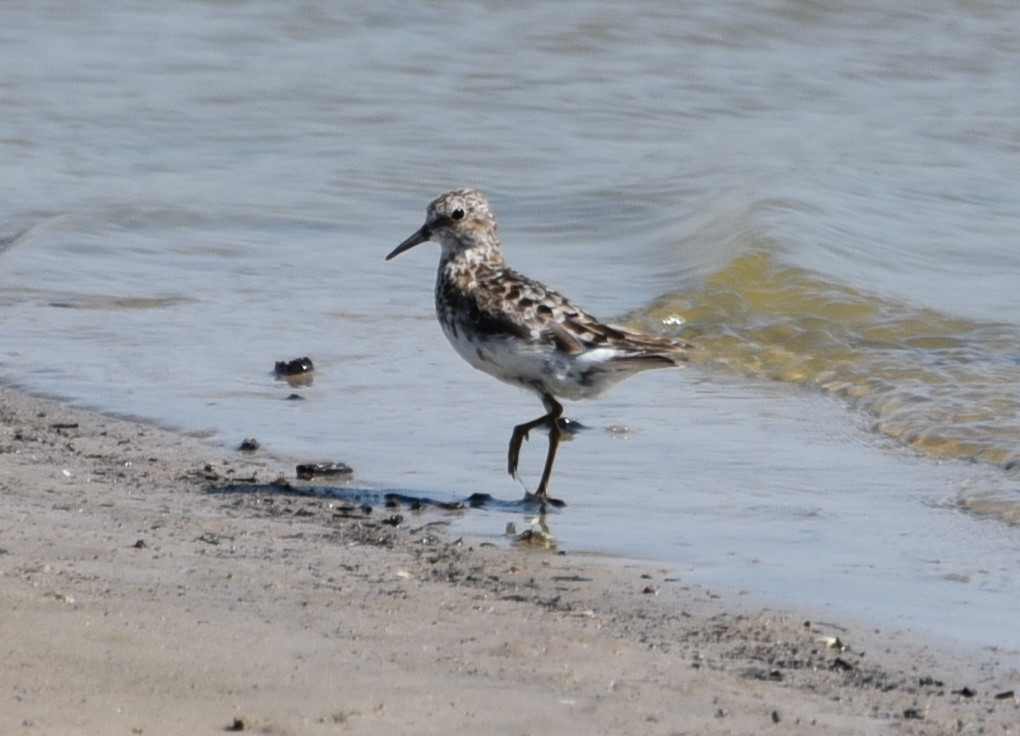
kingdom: Animalia
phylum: Chordata
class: Aves
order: Charadriiformes
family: Scolopacidae
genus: Calidris
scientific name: Calidris minutilla
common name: Least sandpiper
